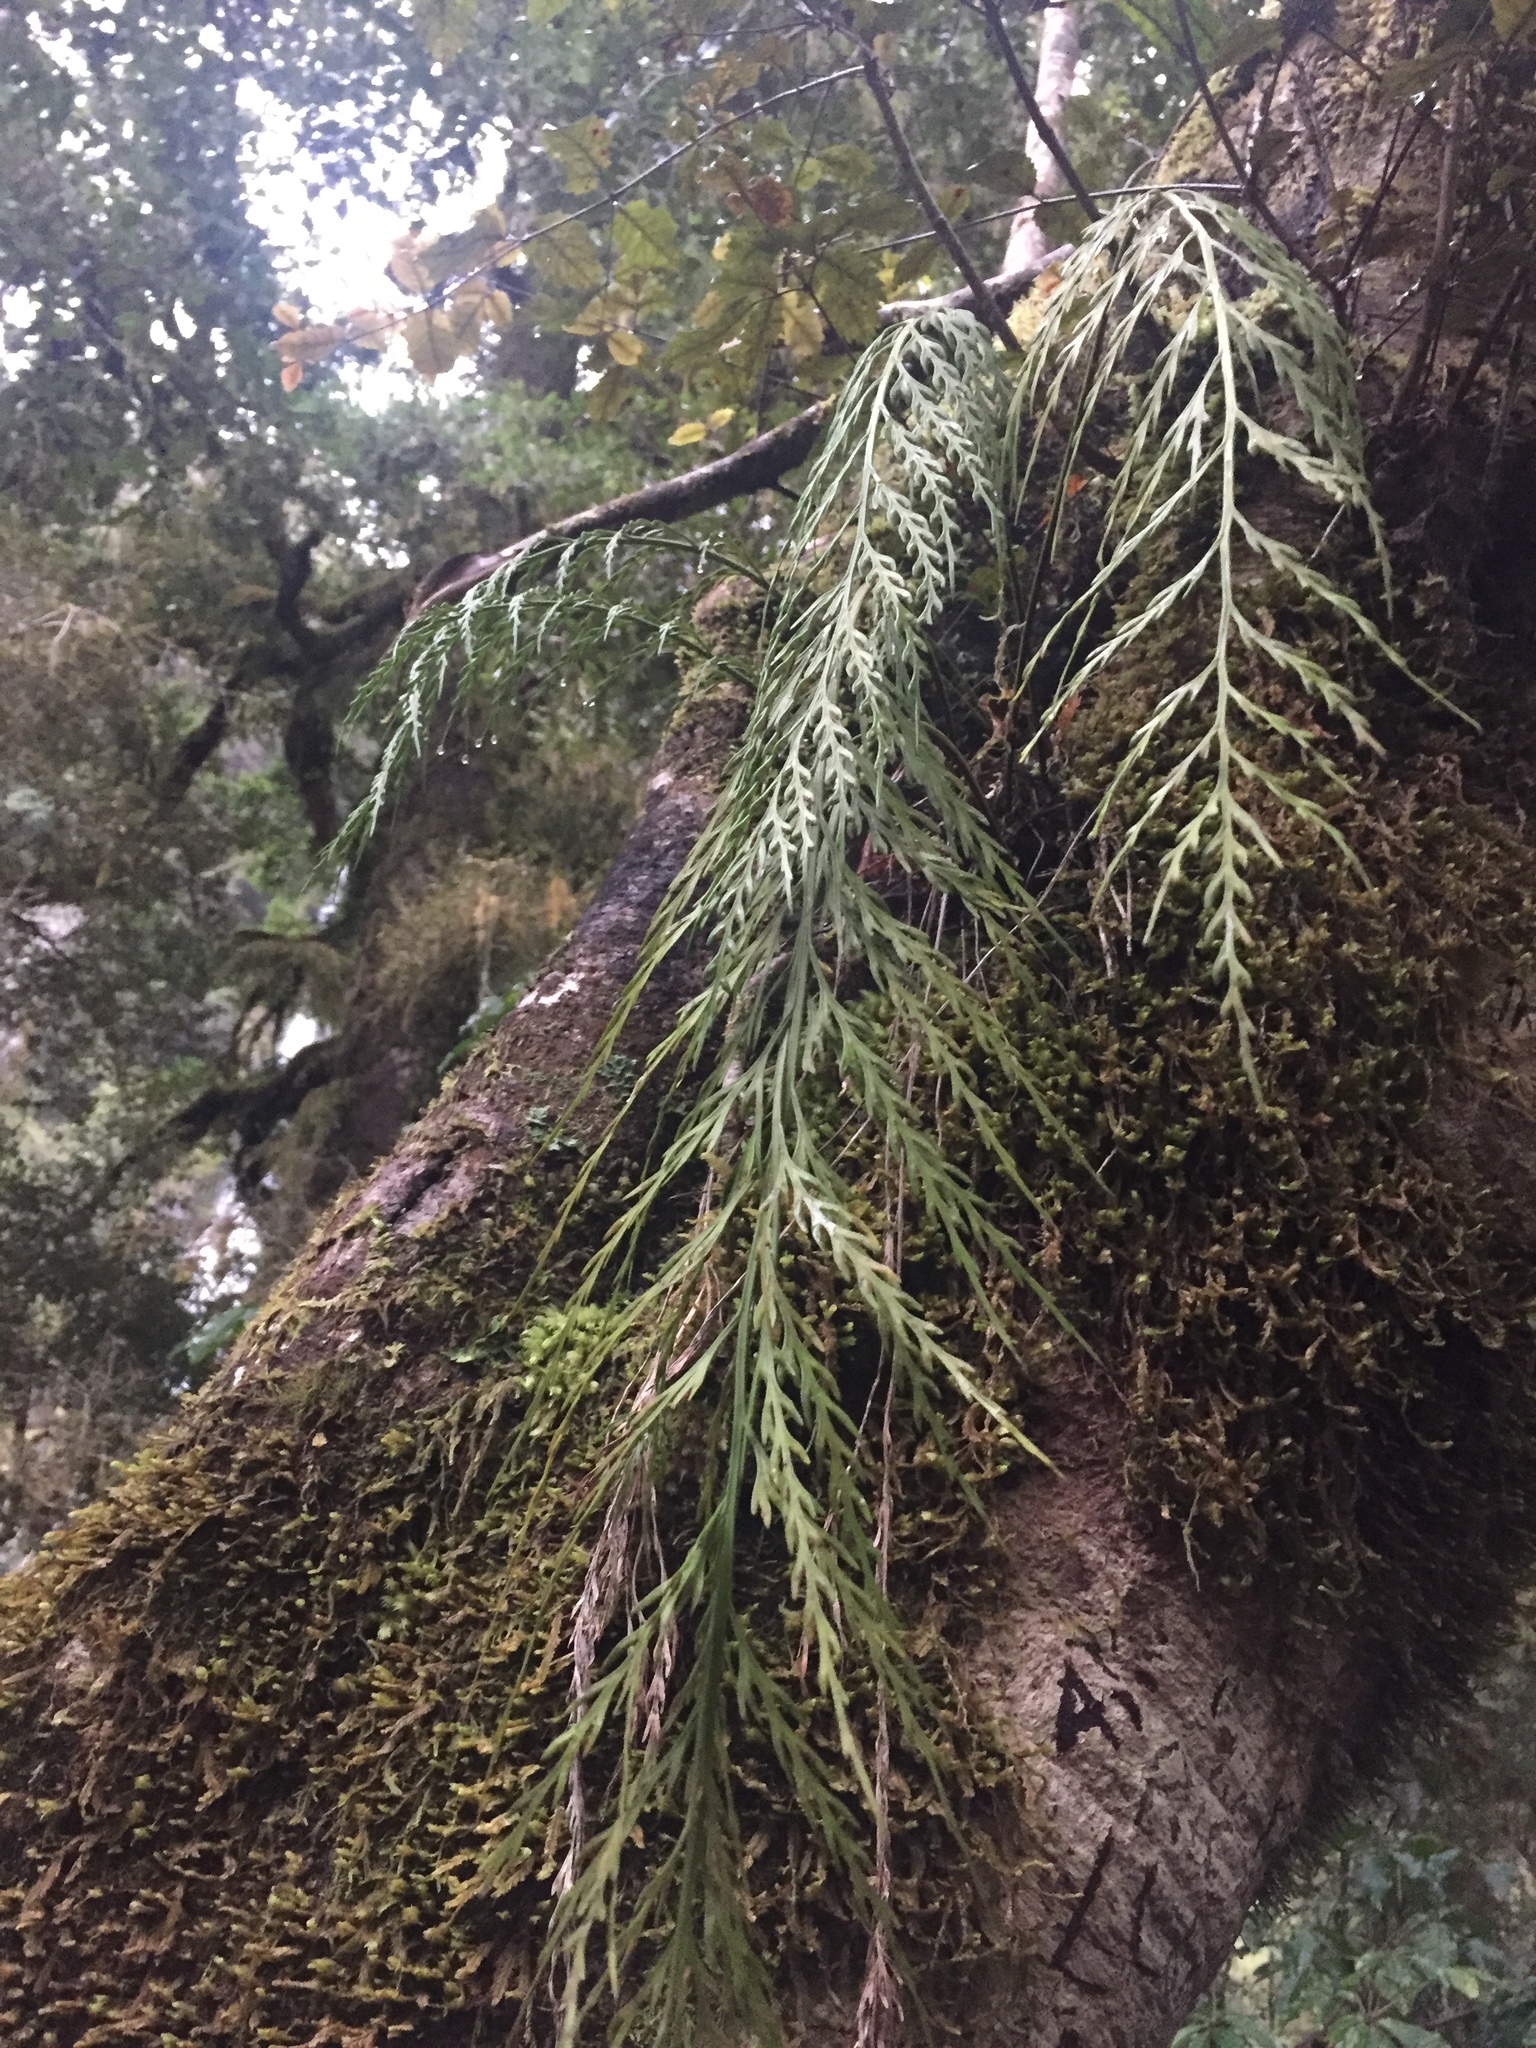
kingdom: Plantae
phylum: Tracheophyta
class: Polypodiopsida
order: Polypodiales
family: Aspleniaceae
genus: Asplenium
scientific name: Asplenium flaccidum
